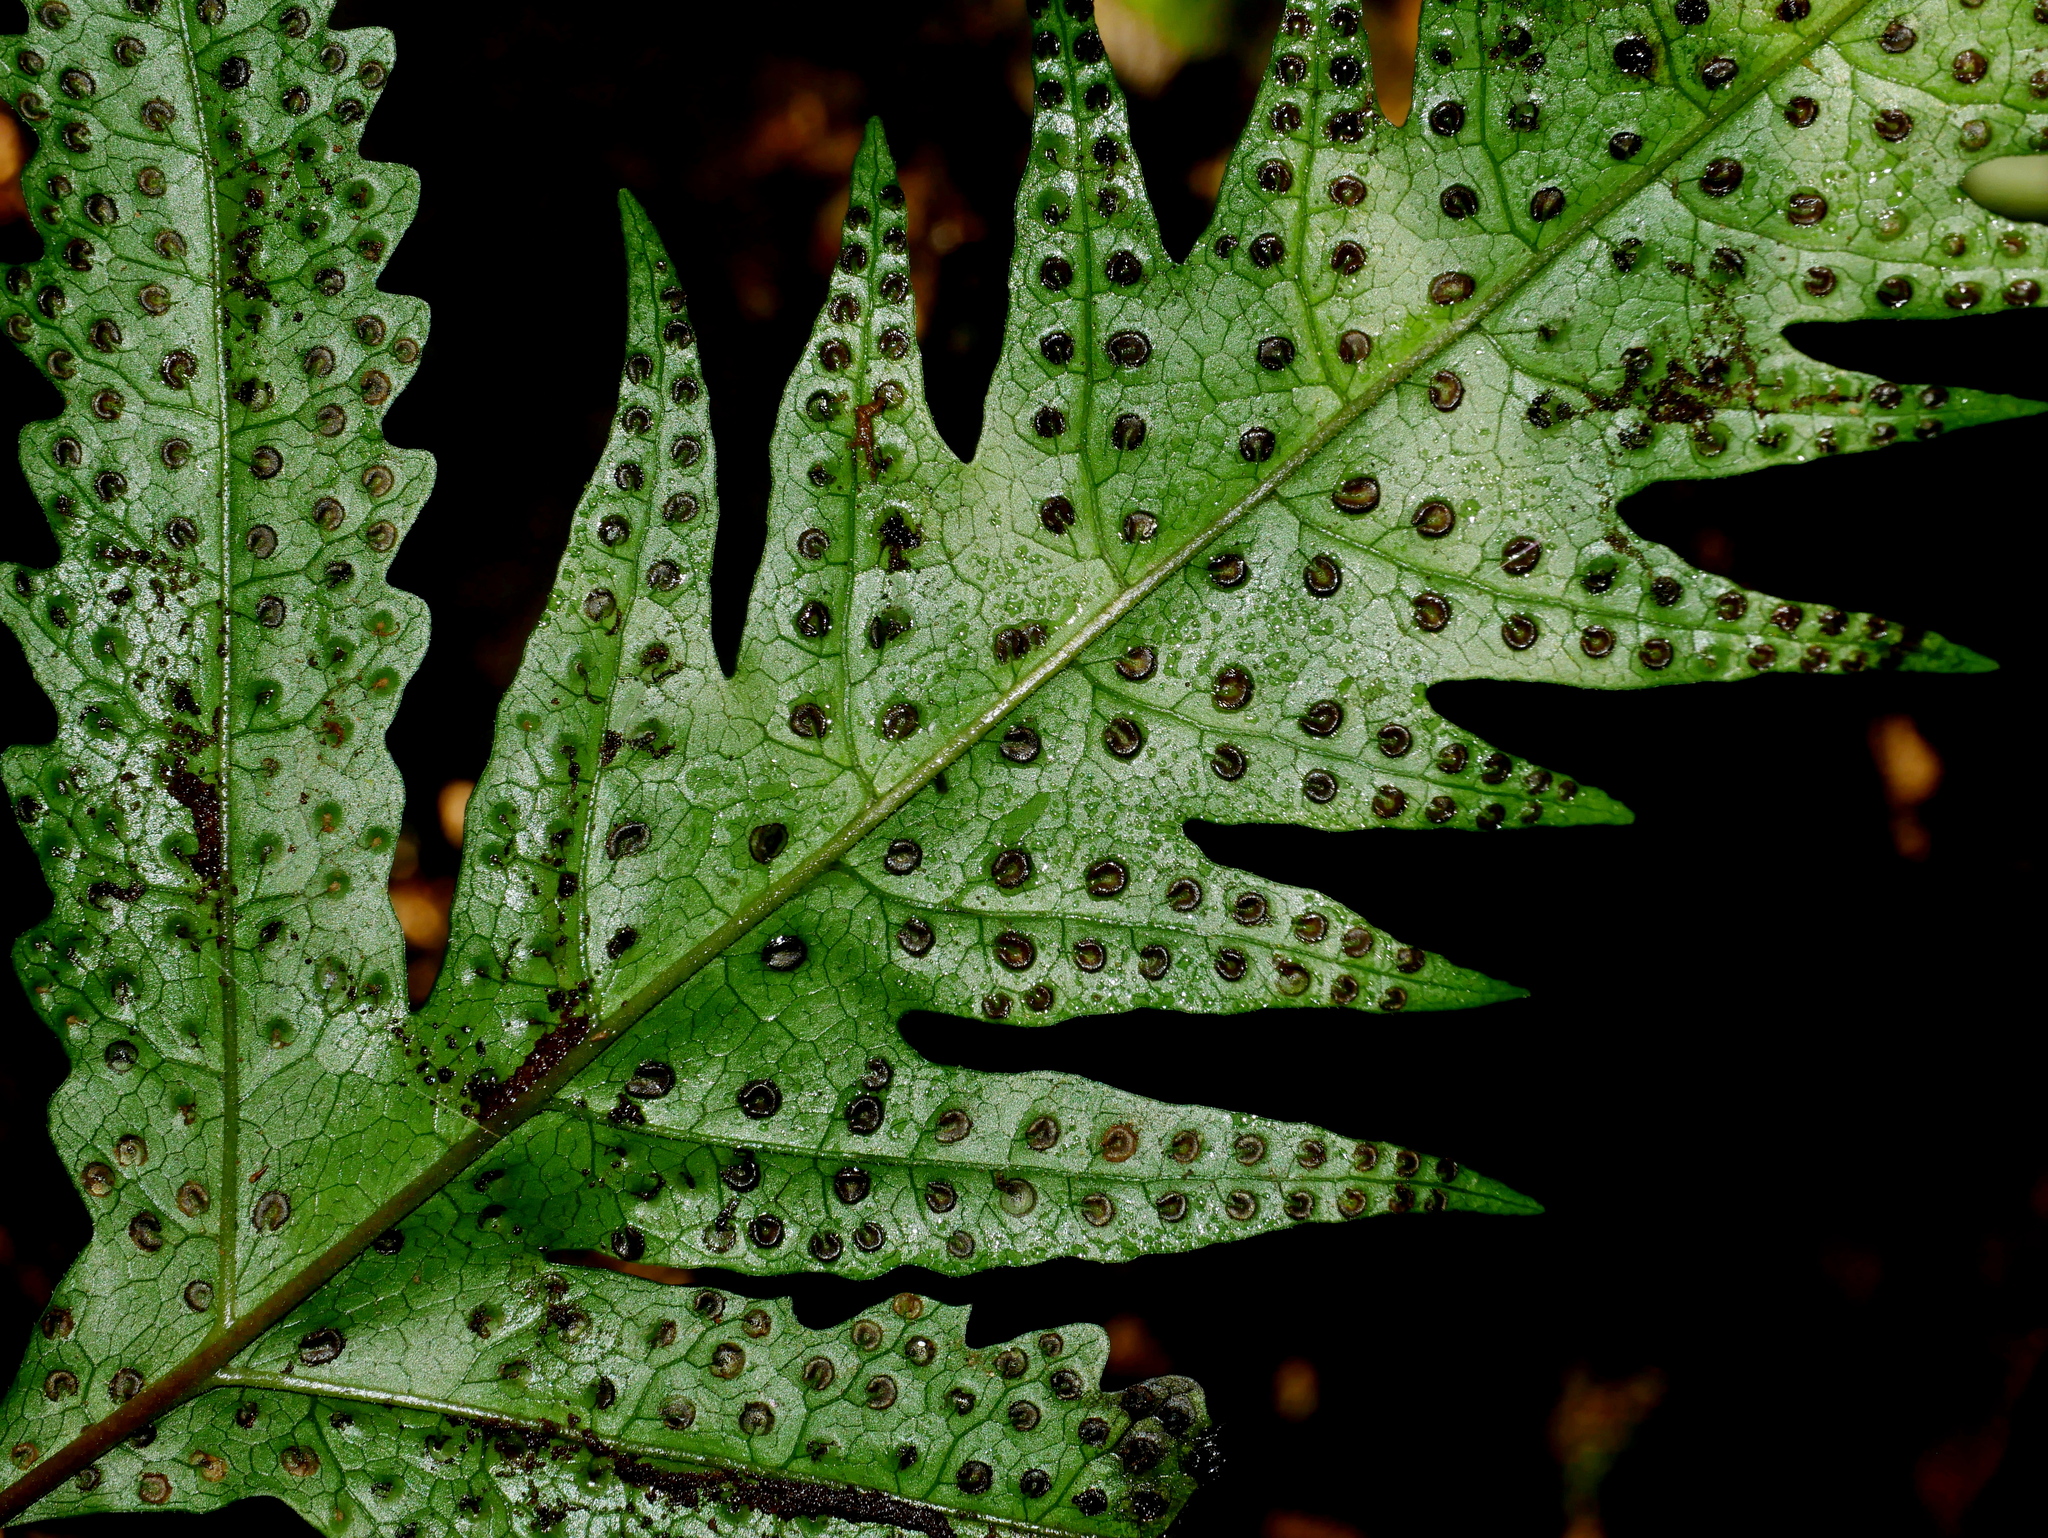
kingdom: Plantae
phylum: Tracheophyta
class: Polypodiopsida
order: Polypodiales
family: Tectariaceae
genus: Tectaria
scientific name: Tectaria phaeocaulis
